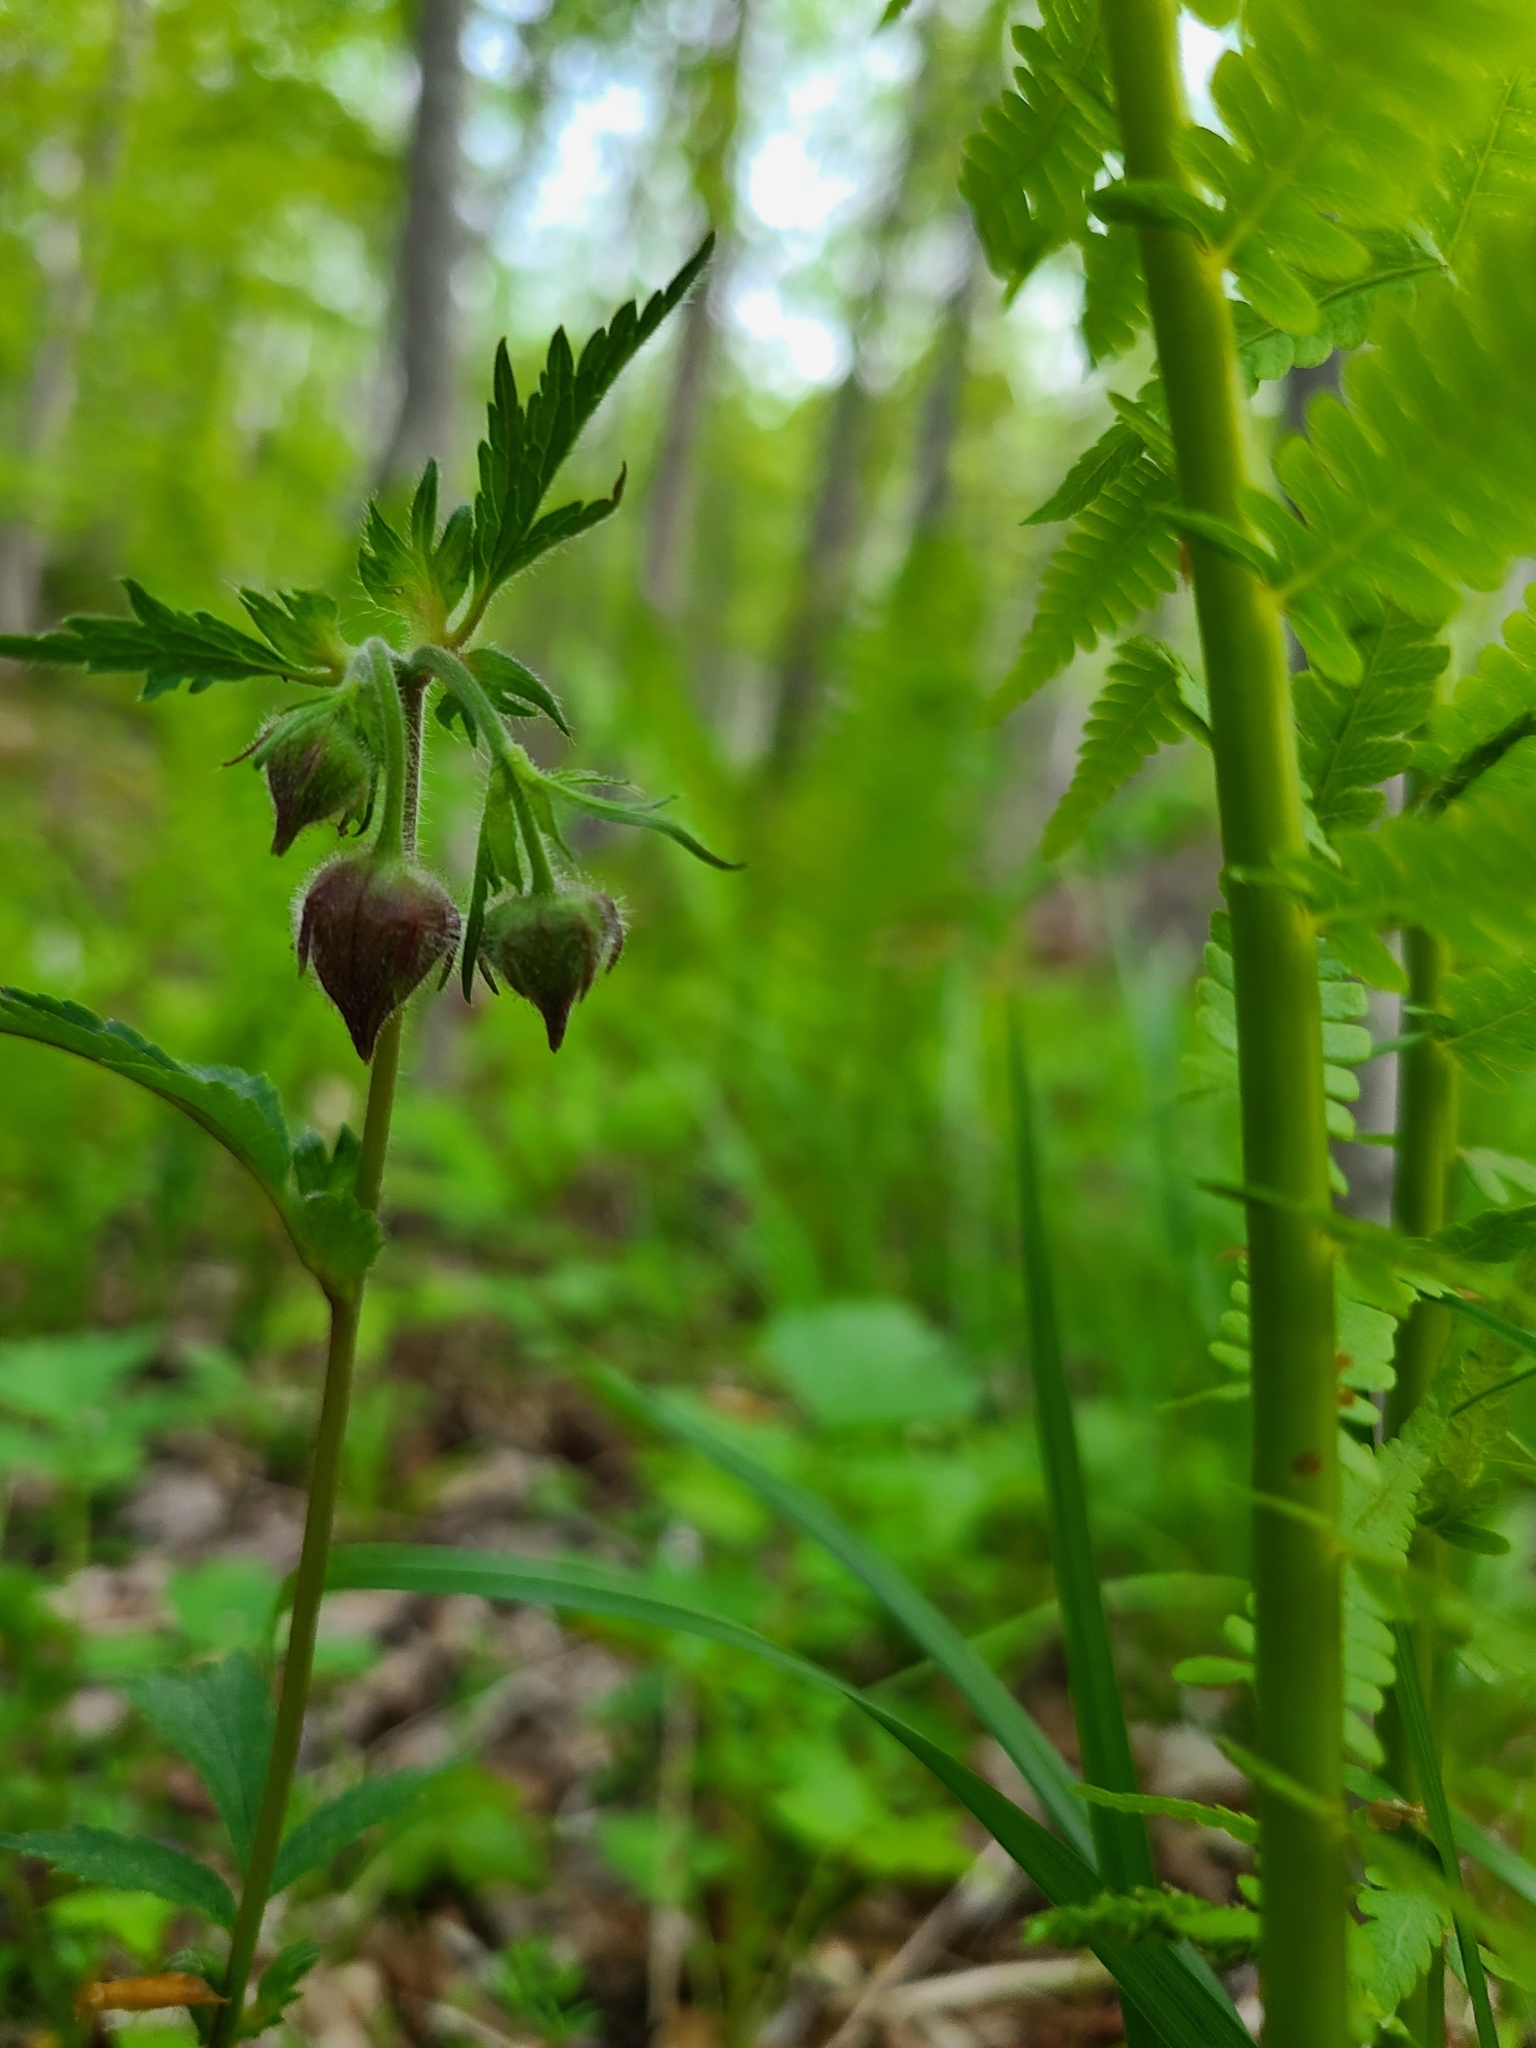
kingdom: Plantae
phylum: Tracheophyta
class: Magnoliopsida
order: Rosales
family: Rosaceae
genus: Geum
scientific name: Geum rivale
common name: Water avens
